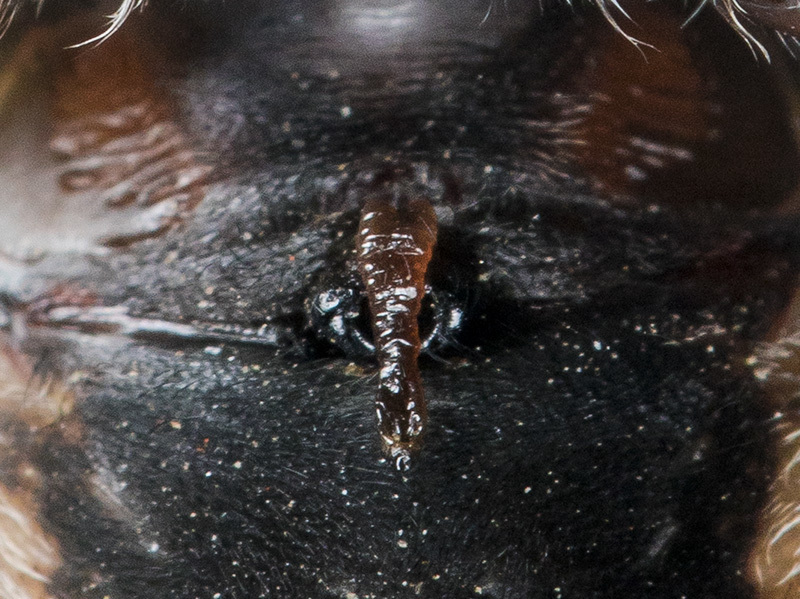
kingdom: Animalia
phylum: Arthropoda
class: Arachnida
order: Araneae
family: Araneidae
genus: Araneus
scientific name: Araneus tartaricus
